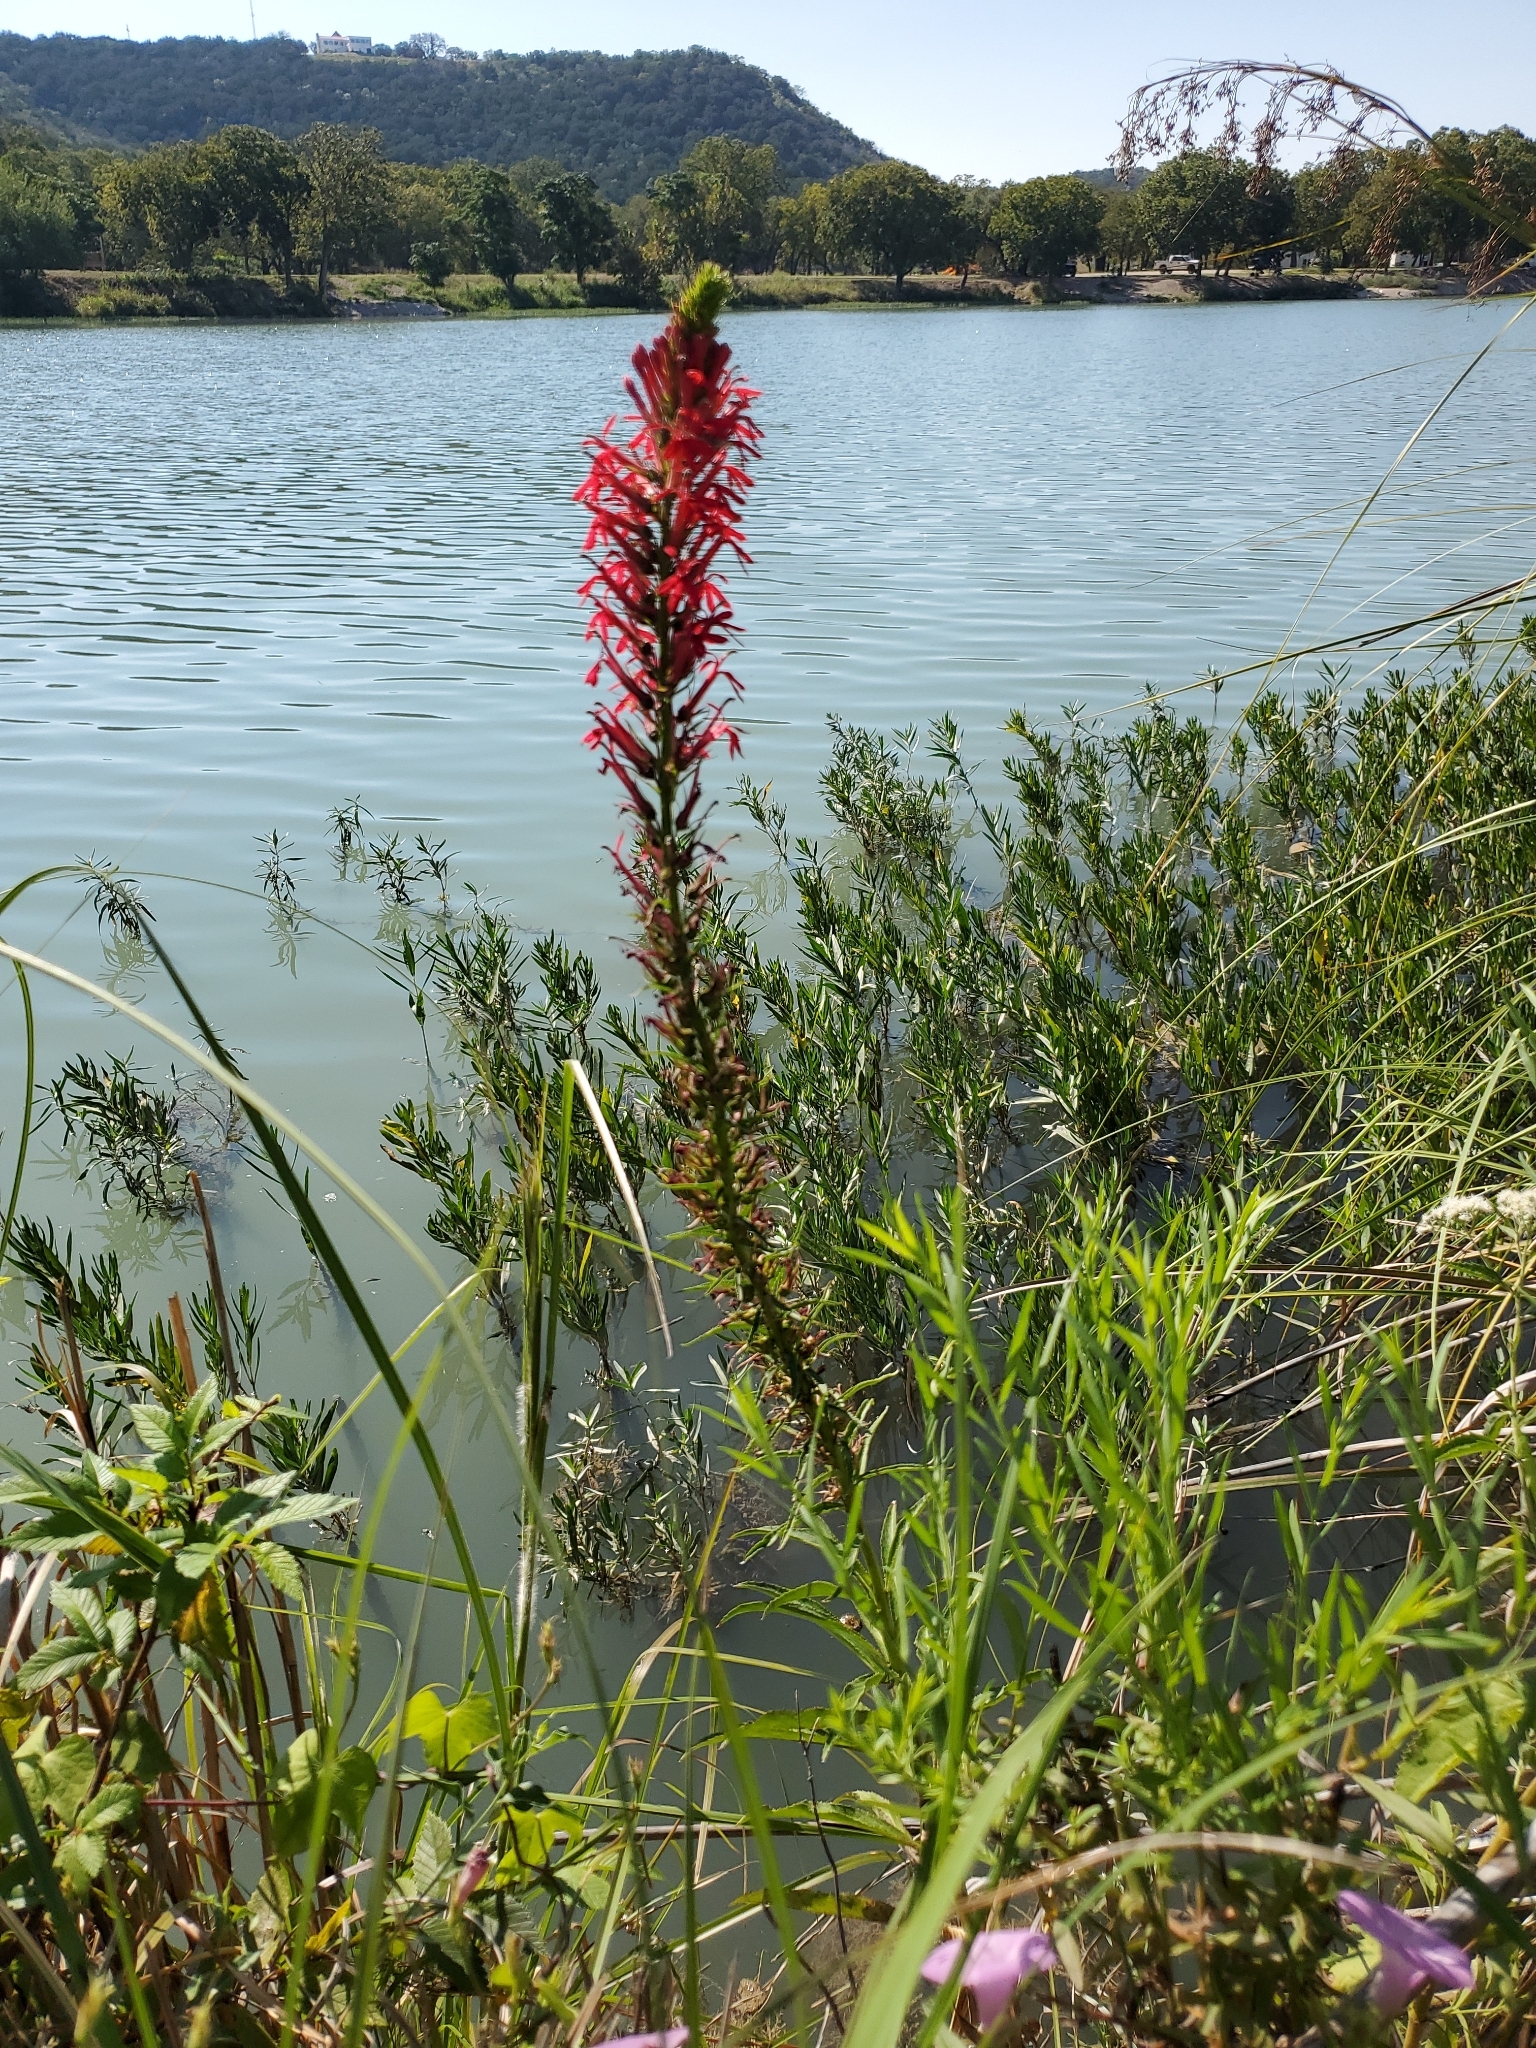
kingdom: Plantae
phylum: Tracheophyta
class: Magnoliopsida
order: Asterales
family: Campanulaceae
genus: Lobelia
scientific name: Lobelia cardinalis
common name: Cardinal flower
